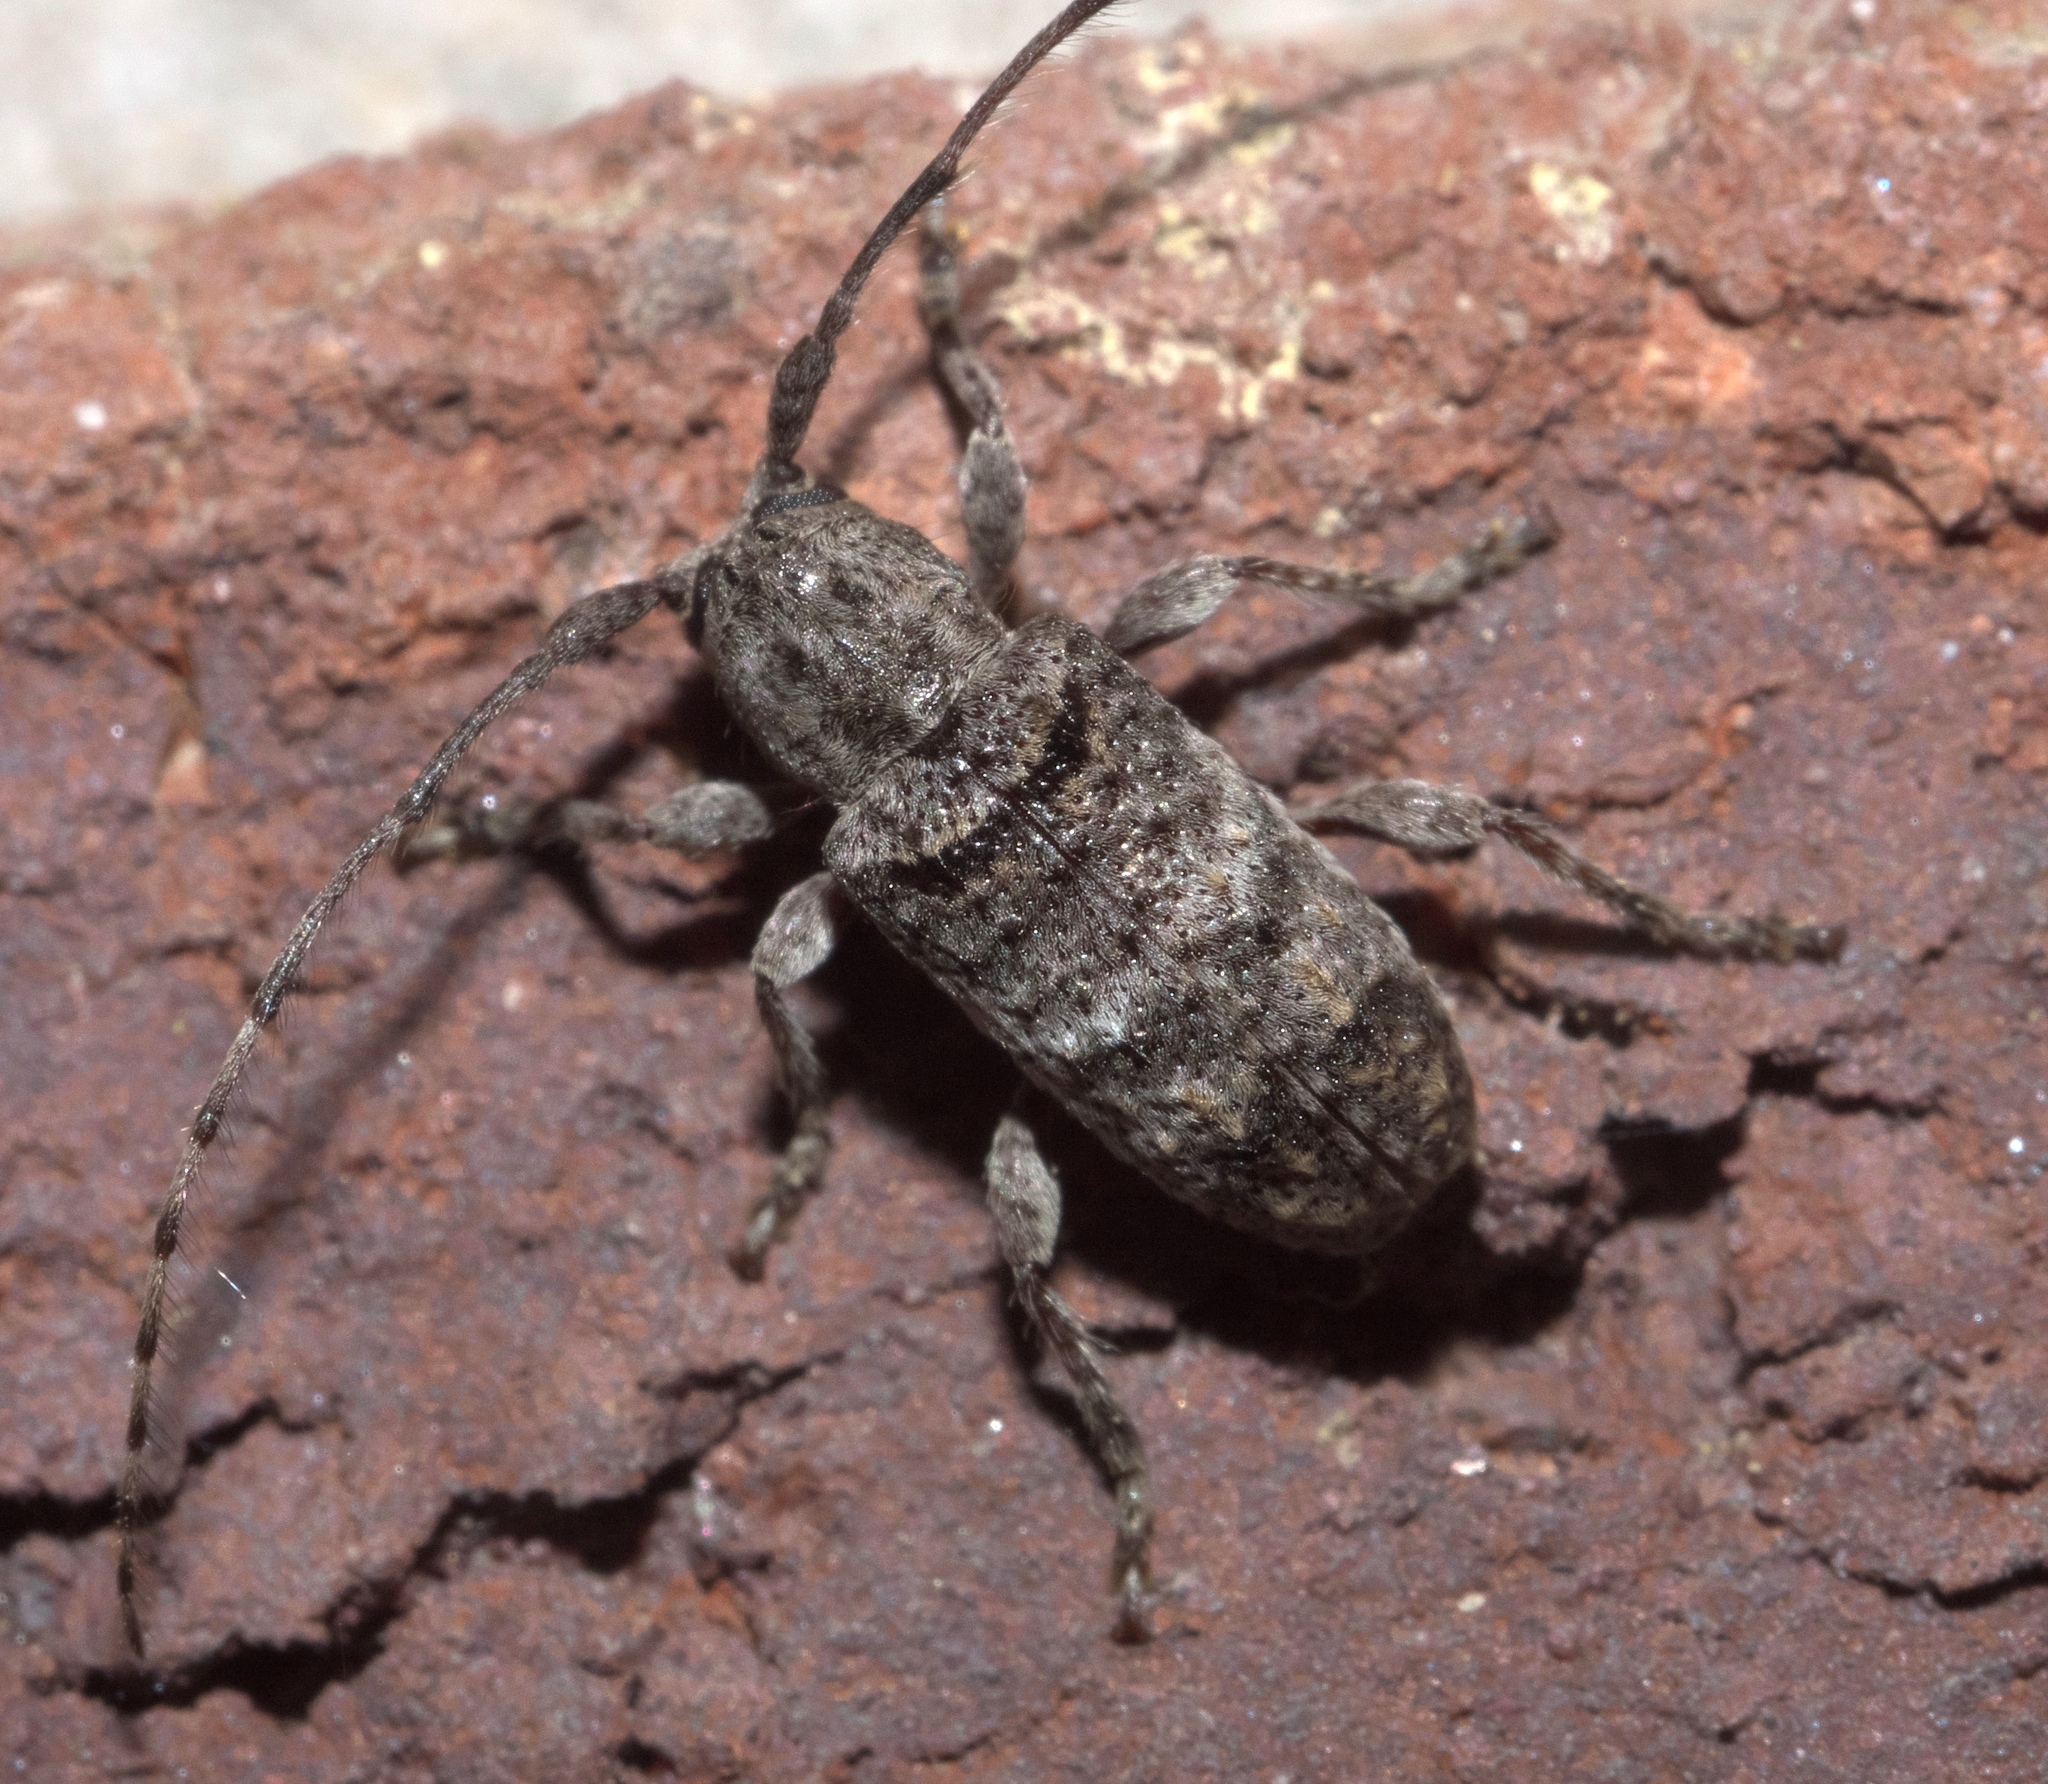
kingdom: Animalia
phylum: Arthropoda
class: Insecta
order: Coleoptera
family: Cerambycidae
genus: Ecyrus
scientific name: Ecyrus dasycerus
